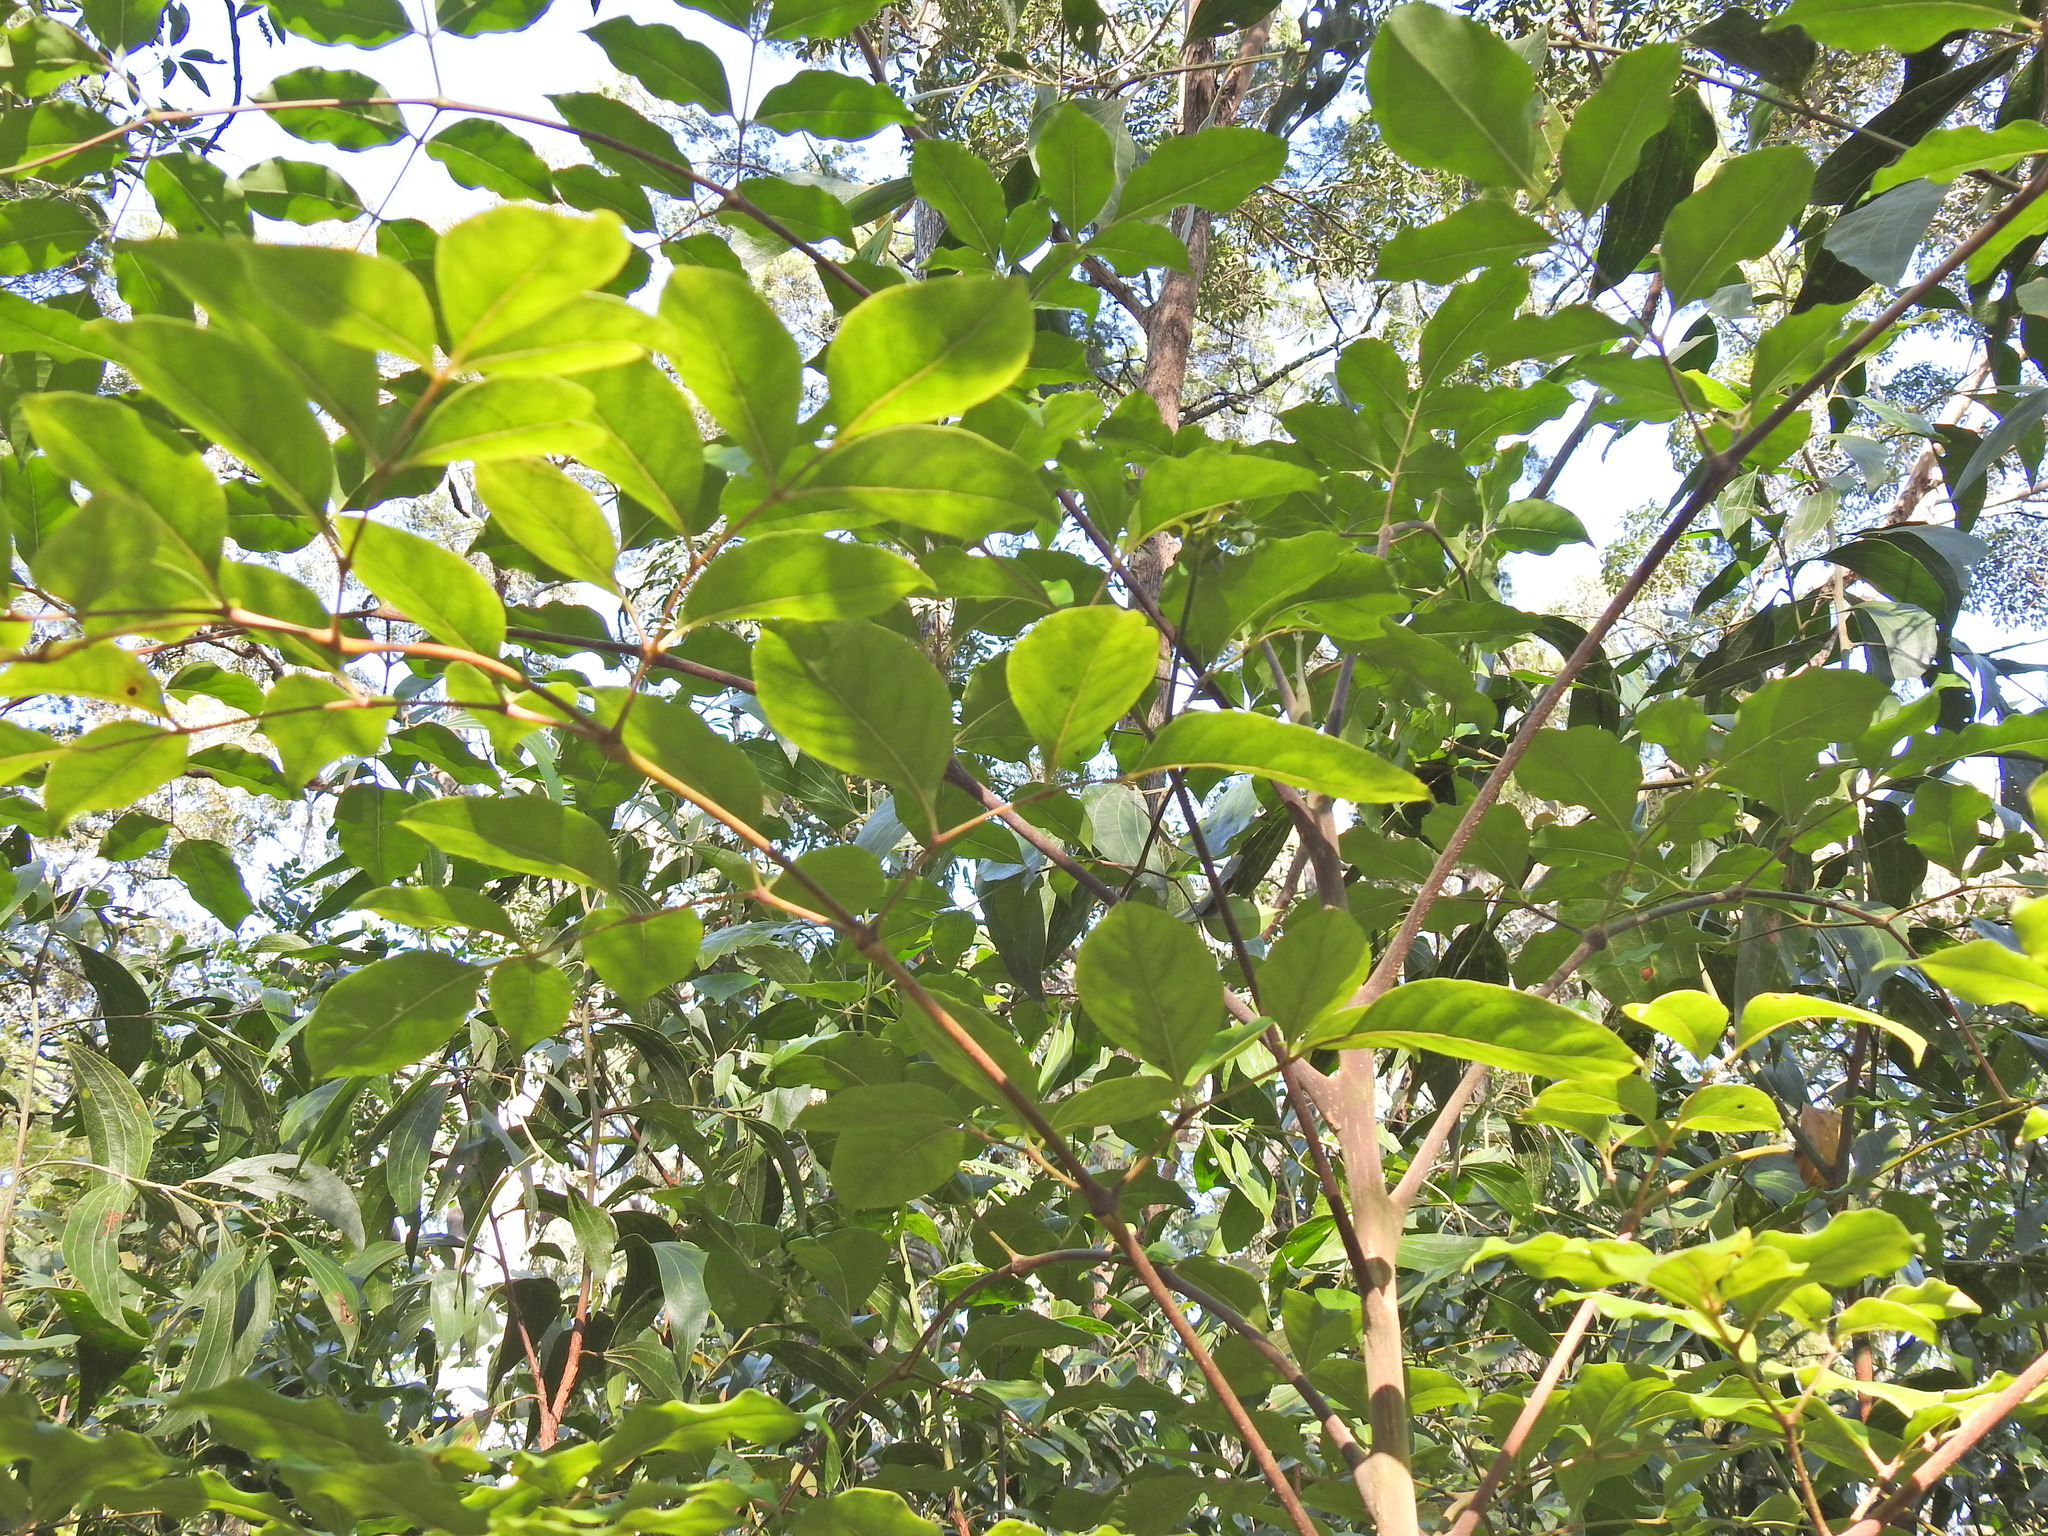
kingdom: Plantae
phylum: Tracheophyta
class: Magnoliopsida
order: Apiales
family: Araliaceae
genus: Polyscias
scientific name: Polyscias elegans
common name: Mowbulan whitewood
